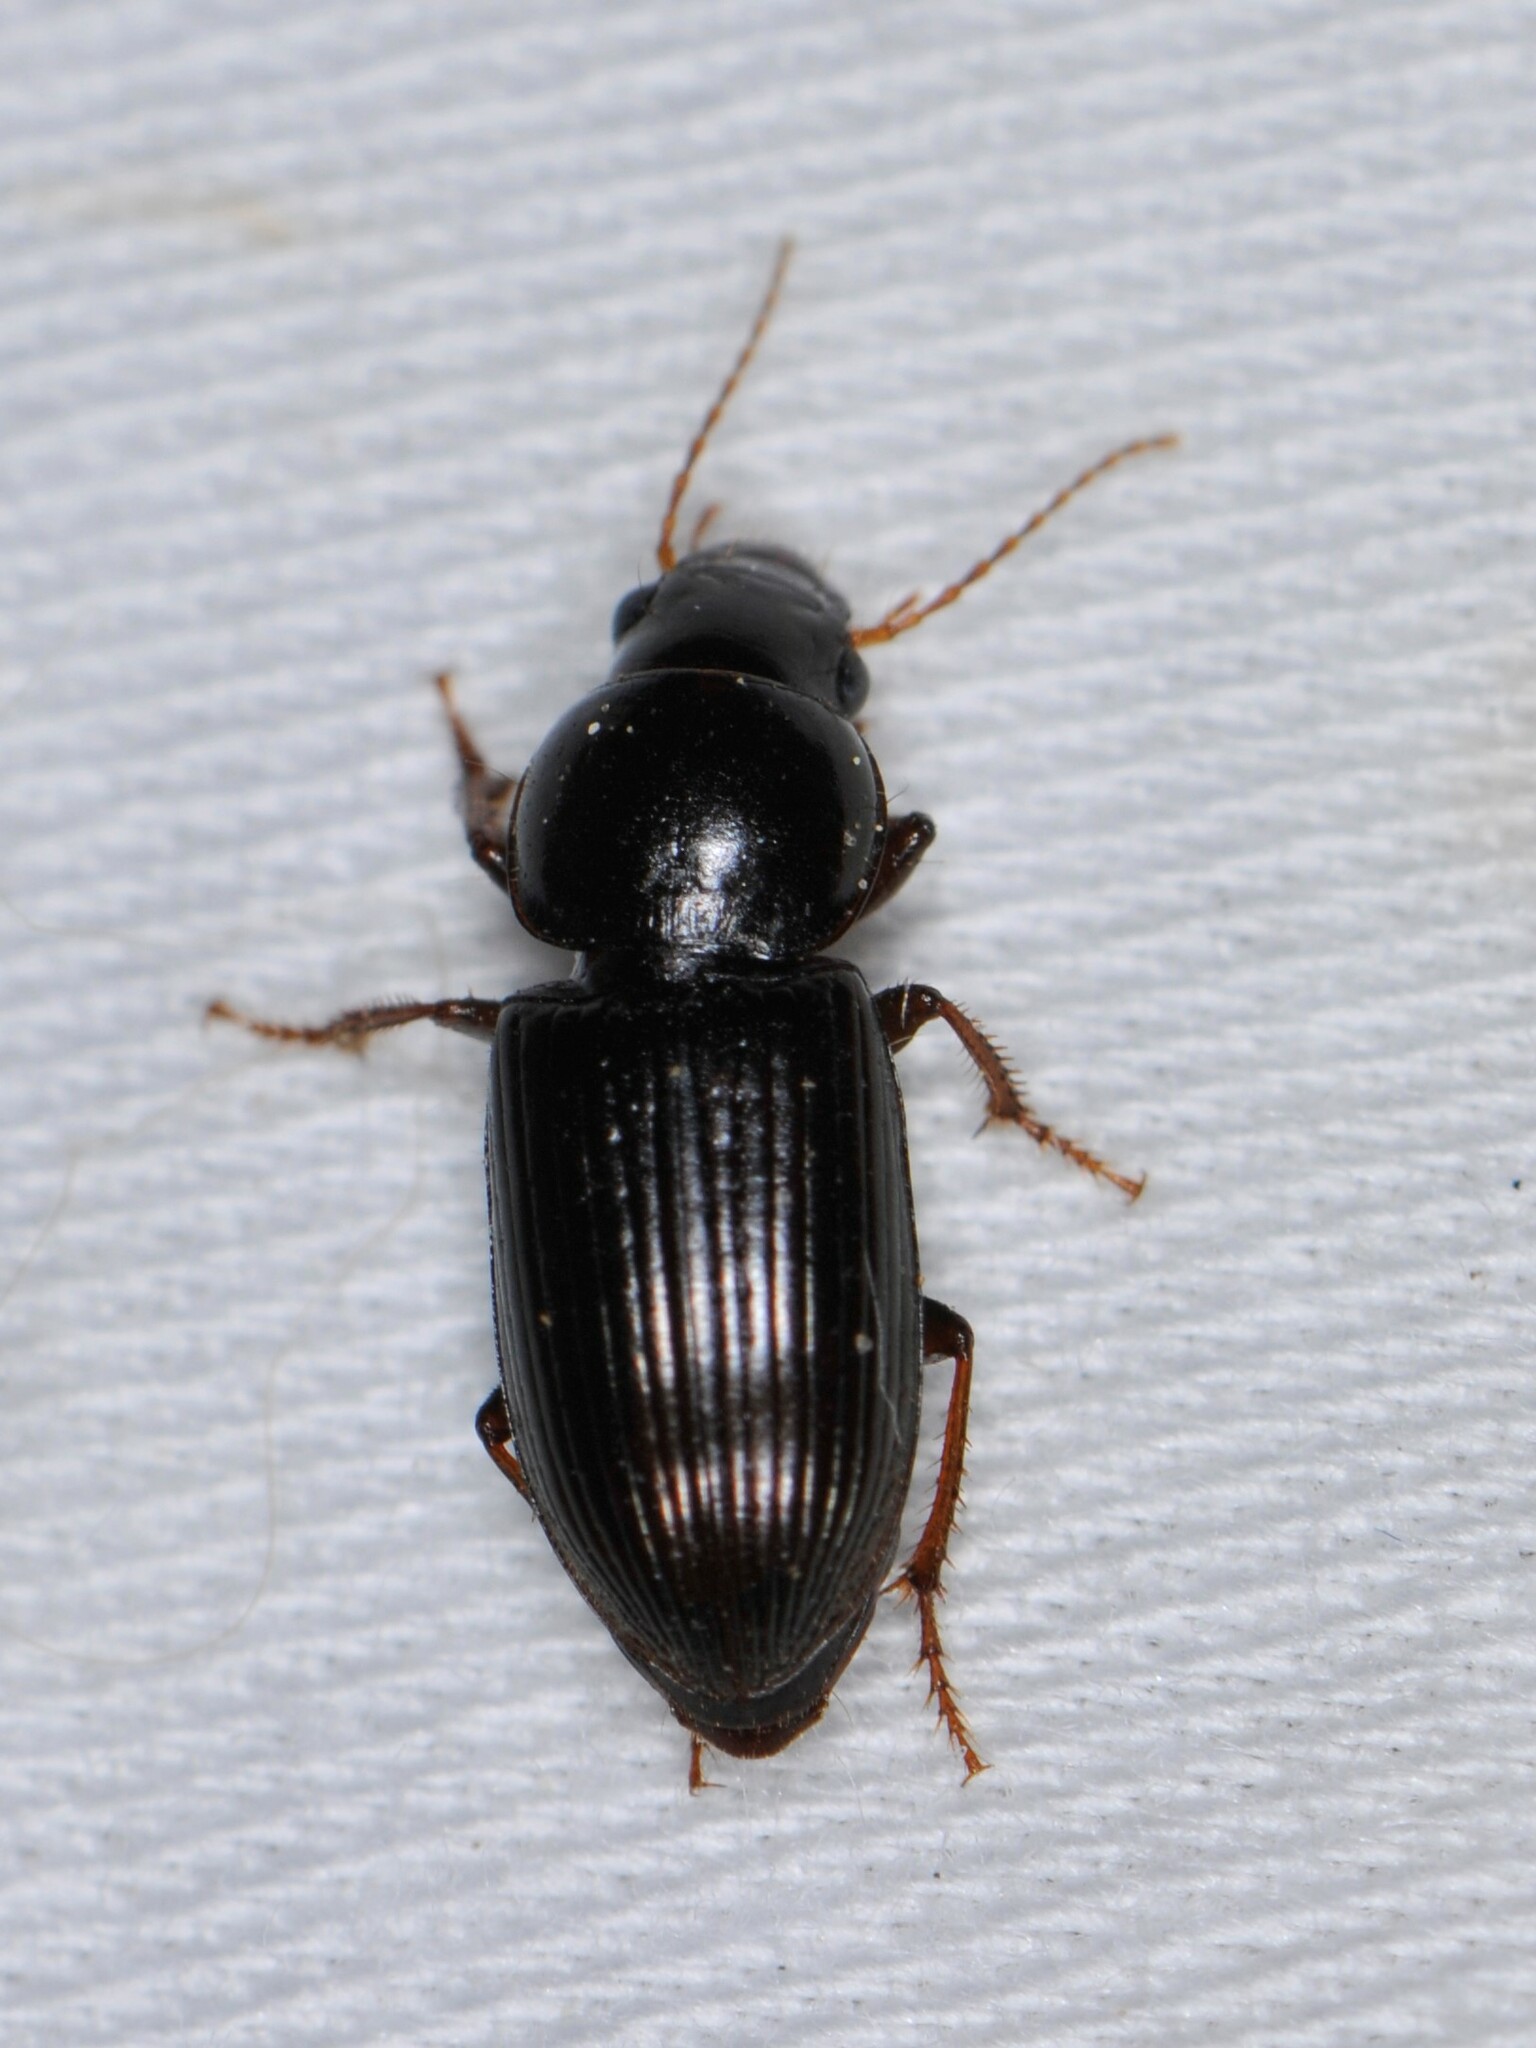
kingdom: Animalia
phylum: Arthropoda
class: Insecta
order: Coleoptera
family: Carabidae
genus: Discoderus
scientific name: Discoderus aequalis
